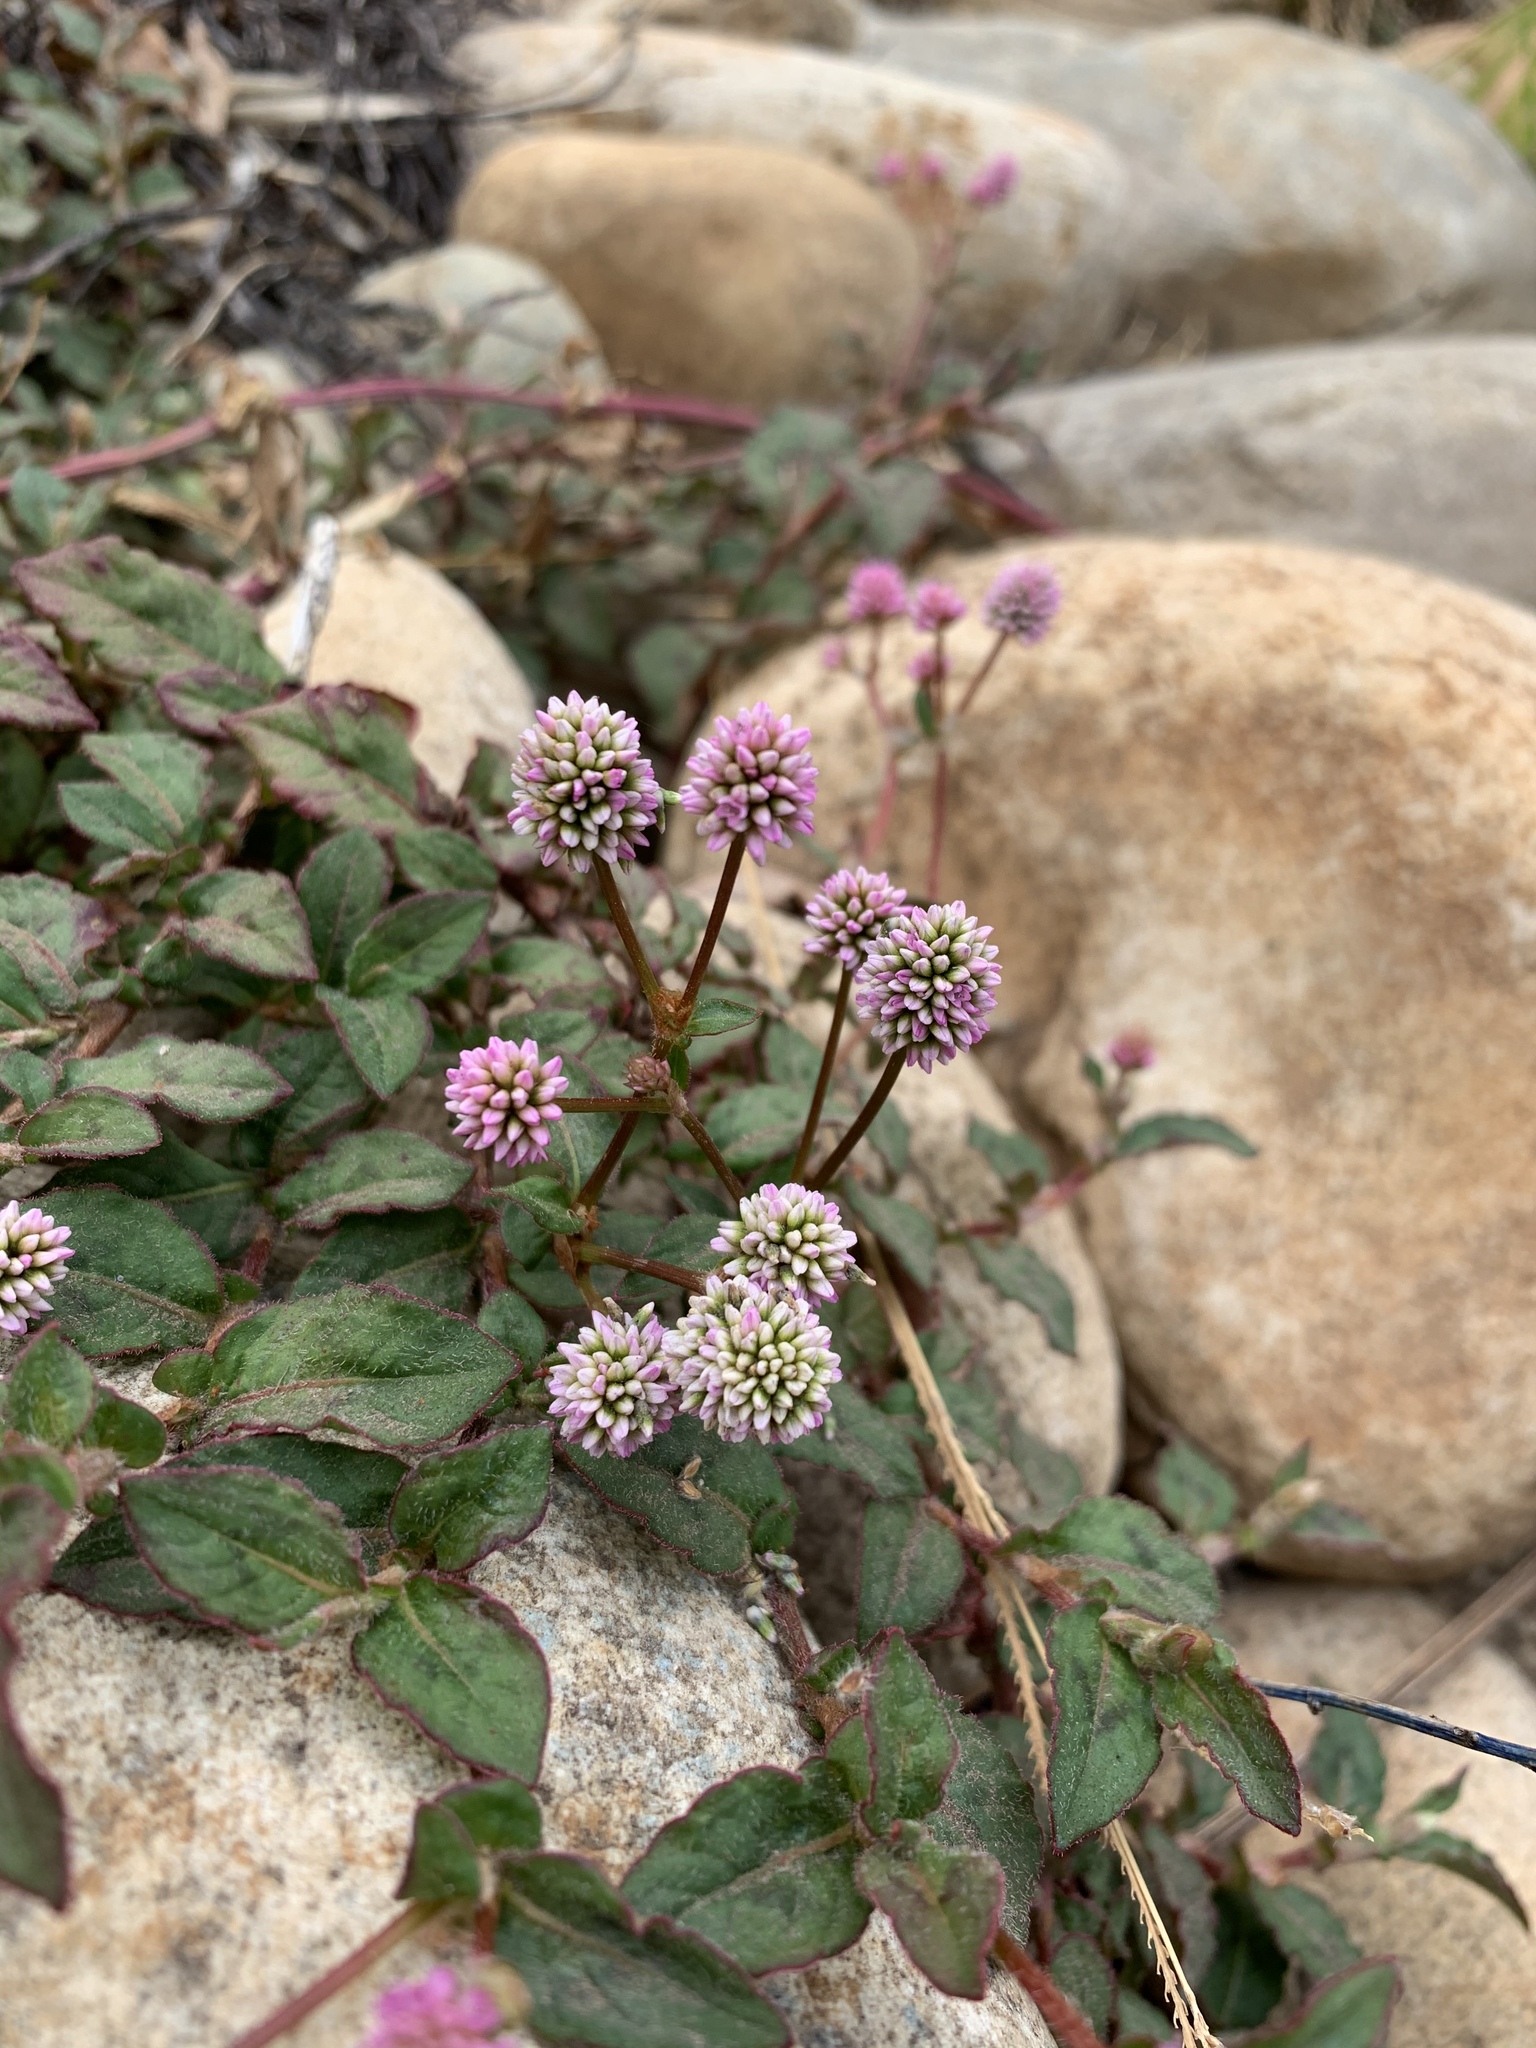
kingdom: Plantae
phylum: Tracheophyta
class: Magnoliopsida
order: Caryophyllales
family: Polygonaceae
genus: Persicaria
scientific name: Persicaria capitata
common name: Pinkhead smartweed
